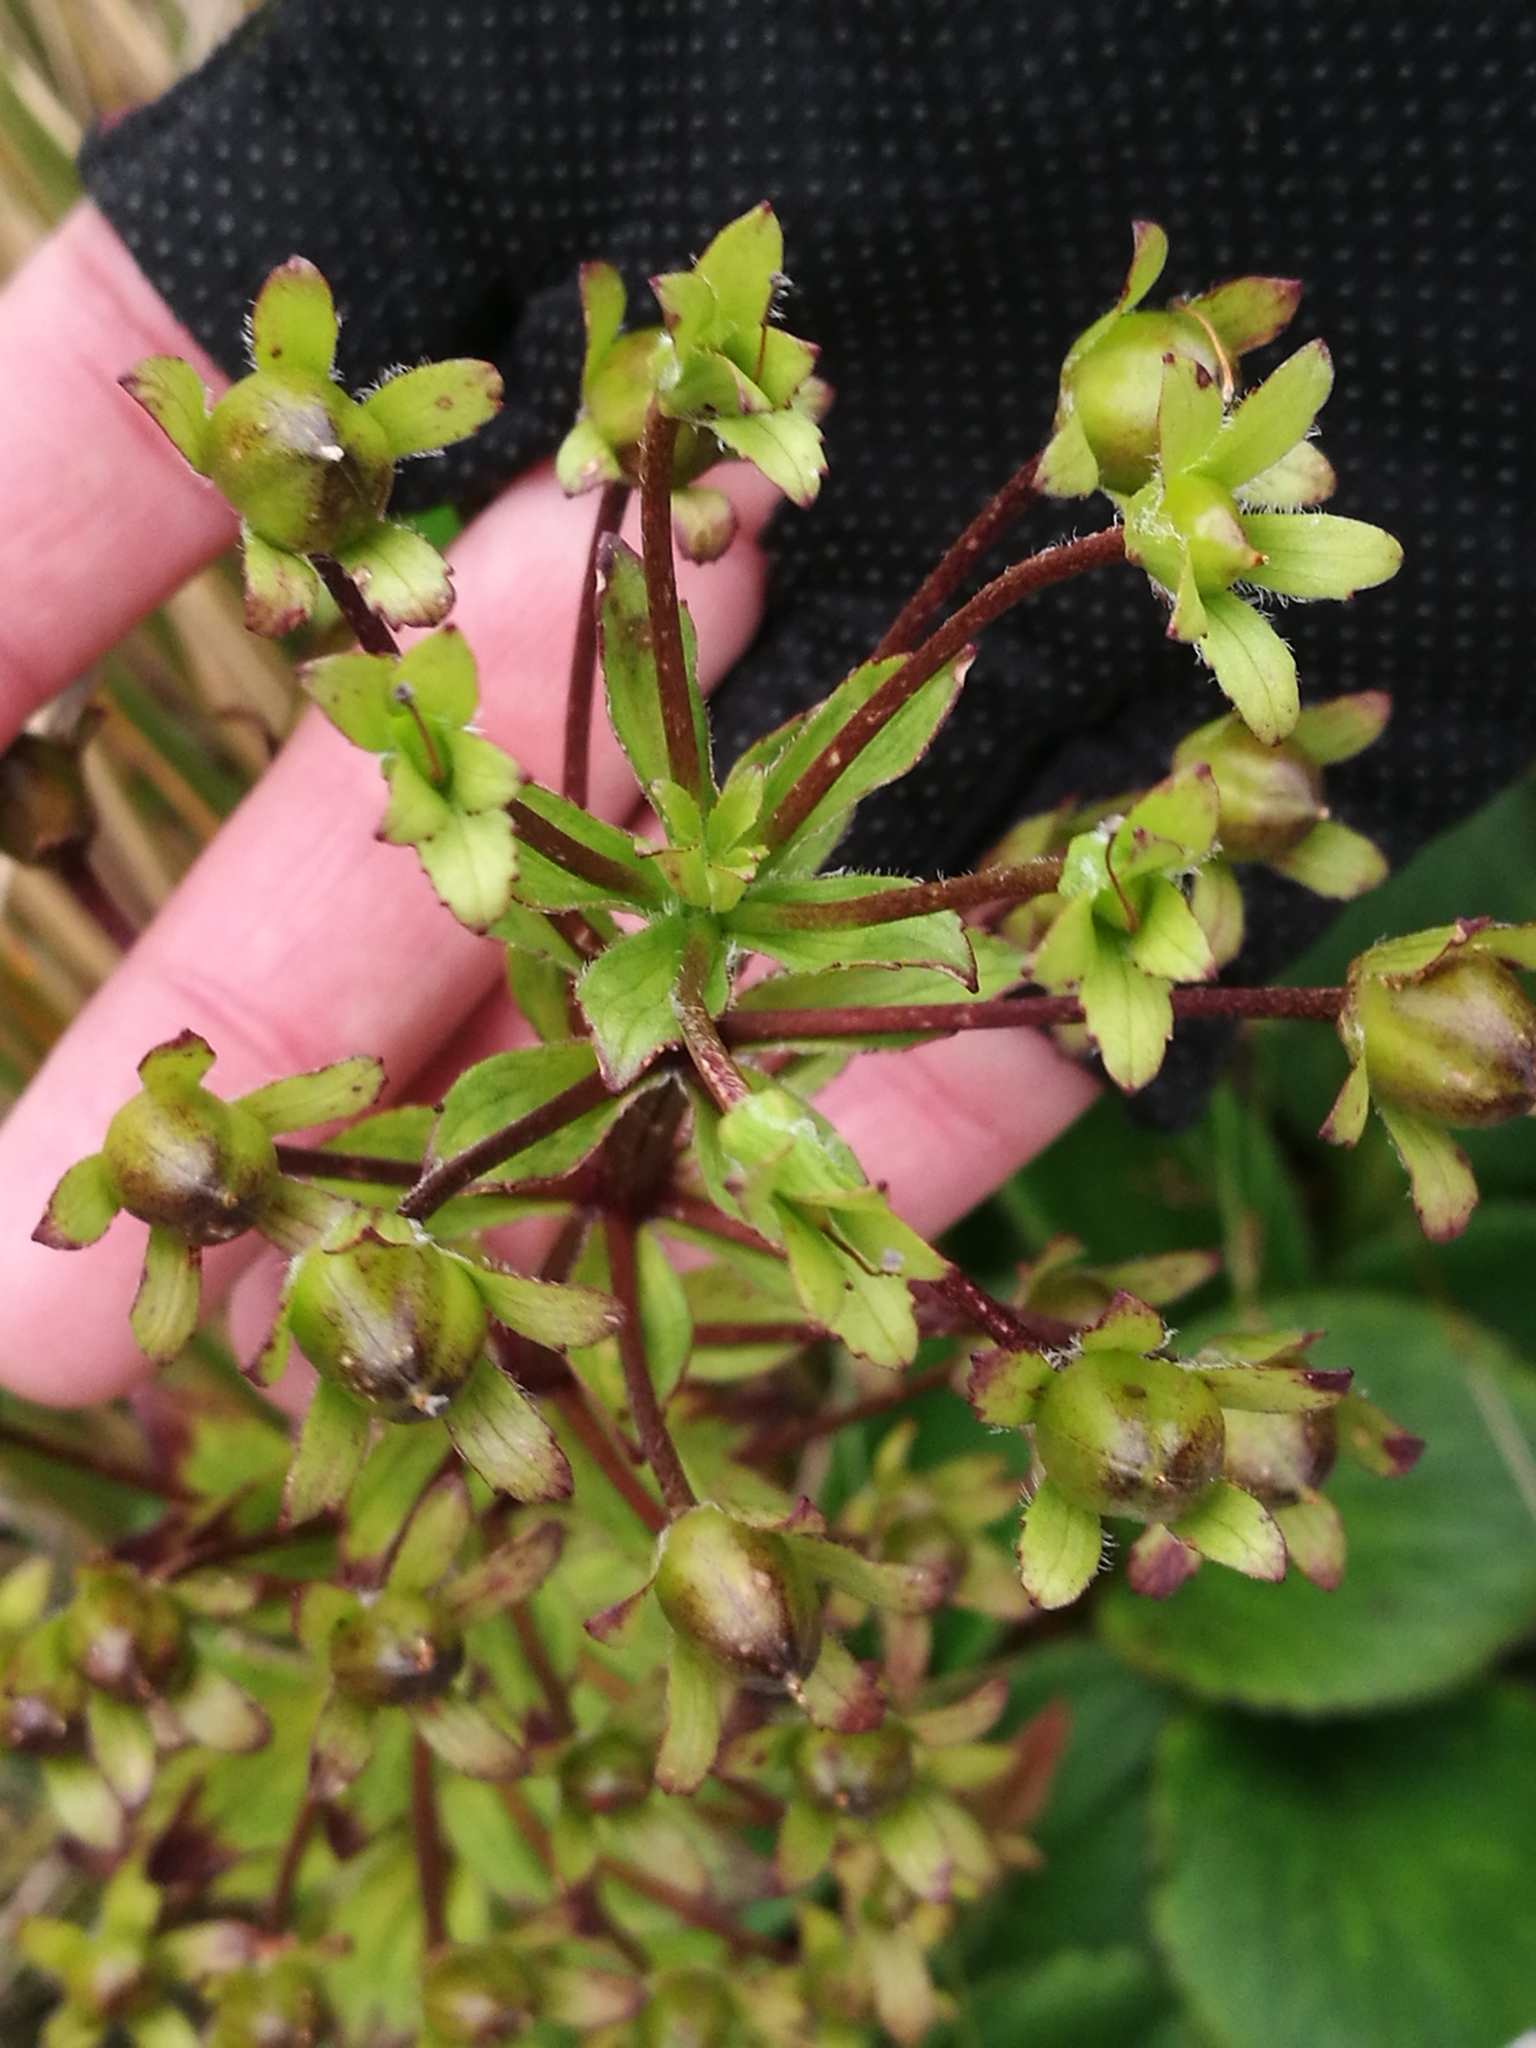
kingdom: Plantae
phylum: Tracheophyta
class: Magnoliopsida
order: Lamiales
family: Plantaginaceae
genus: Ourisia
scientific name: Ourisia calycina
